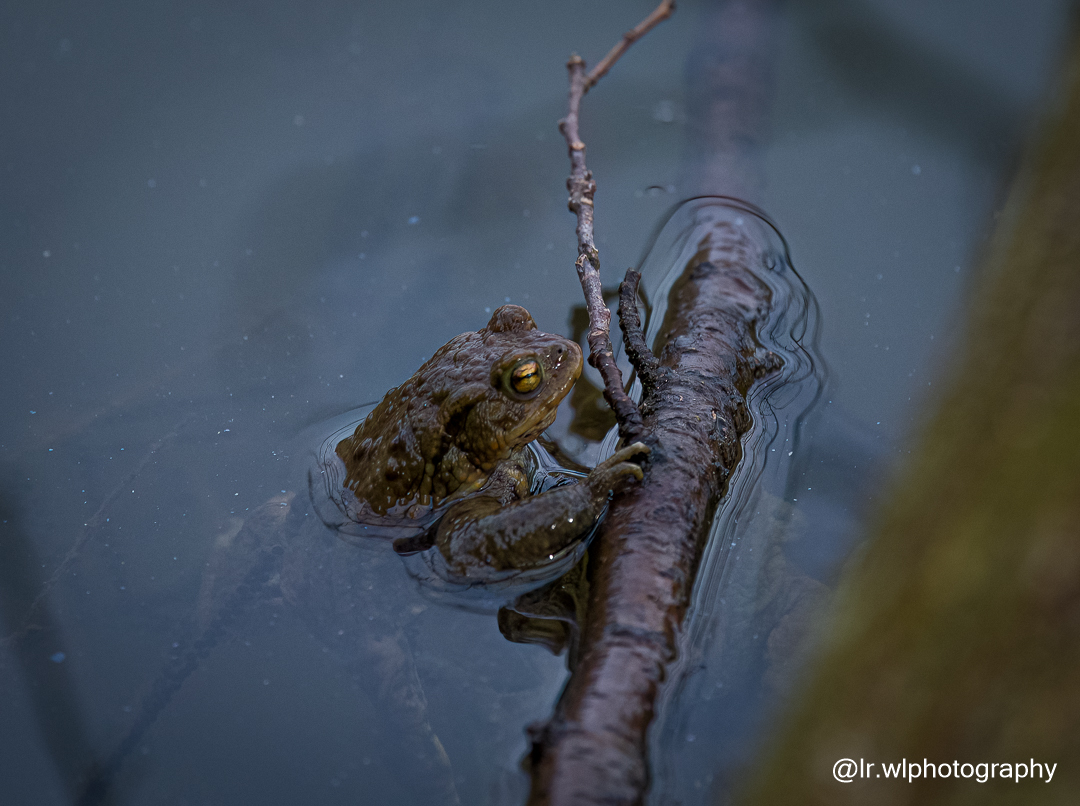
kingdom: Animalia
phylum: Chordata
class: Amphibia
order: Anura
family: Bufonidae
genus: Bufo
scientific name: Bufo bufo
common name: Common toad
